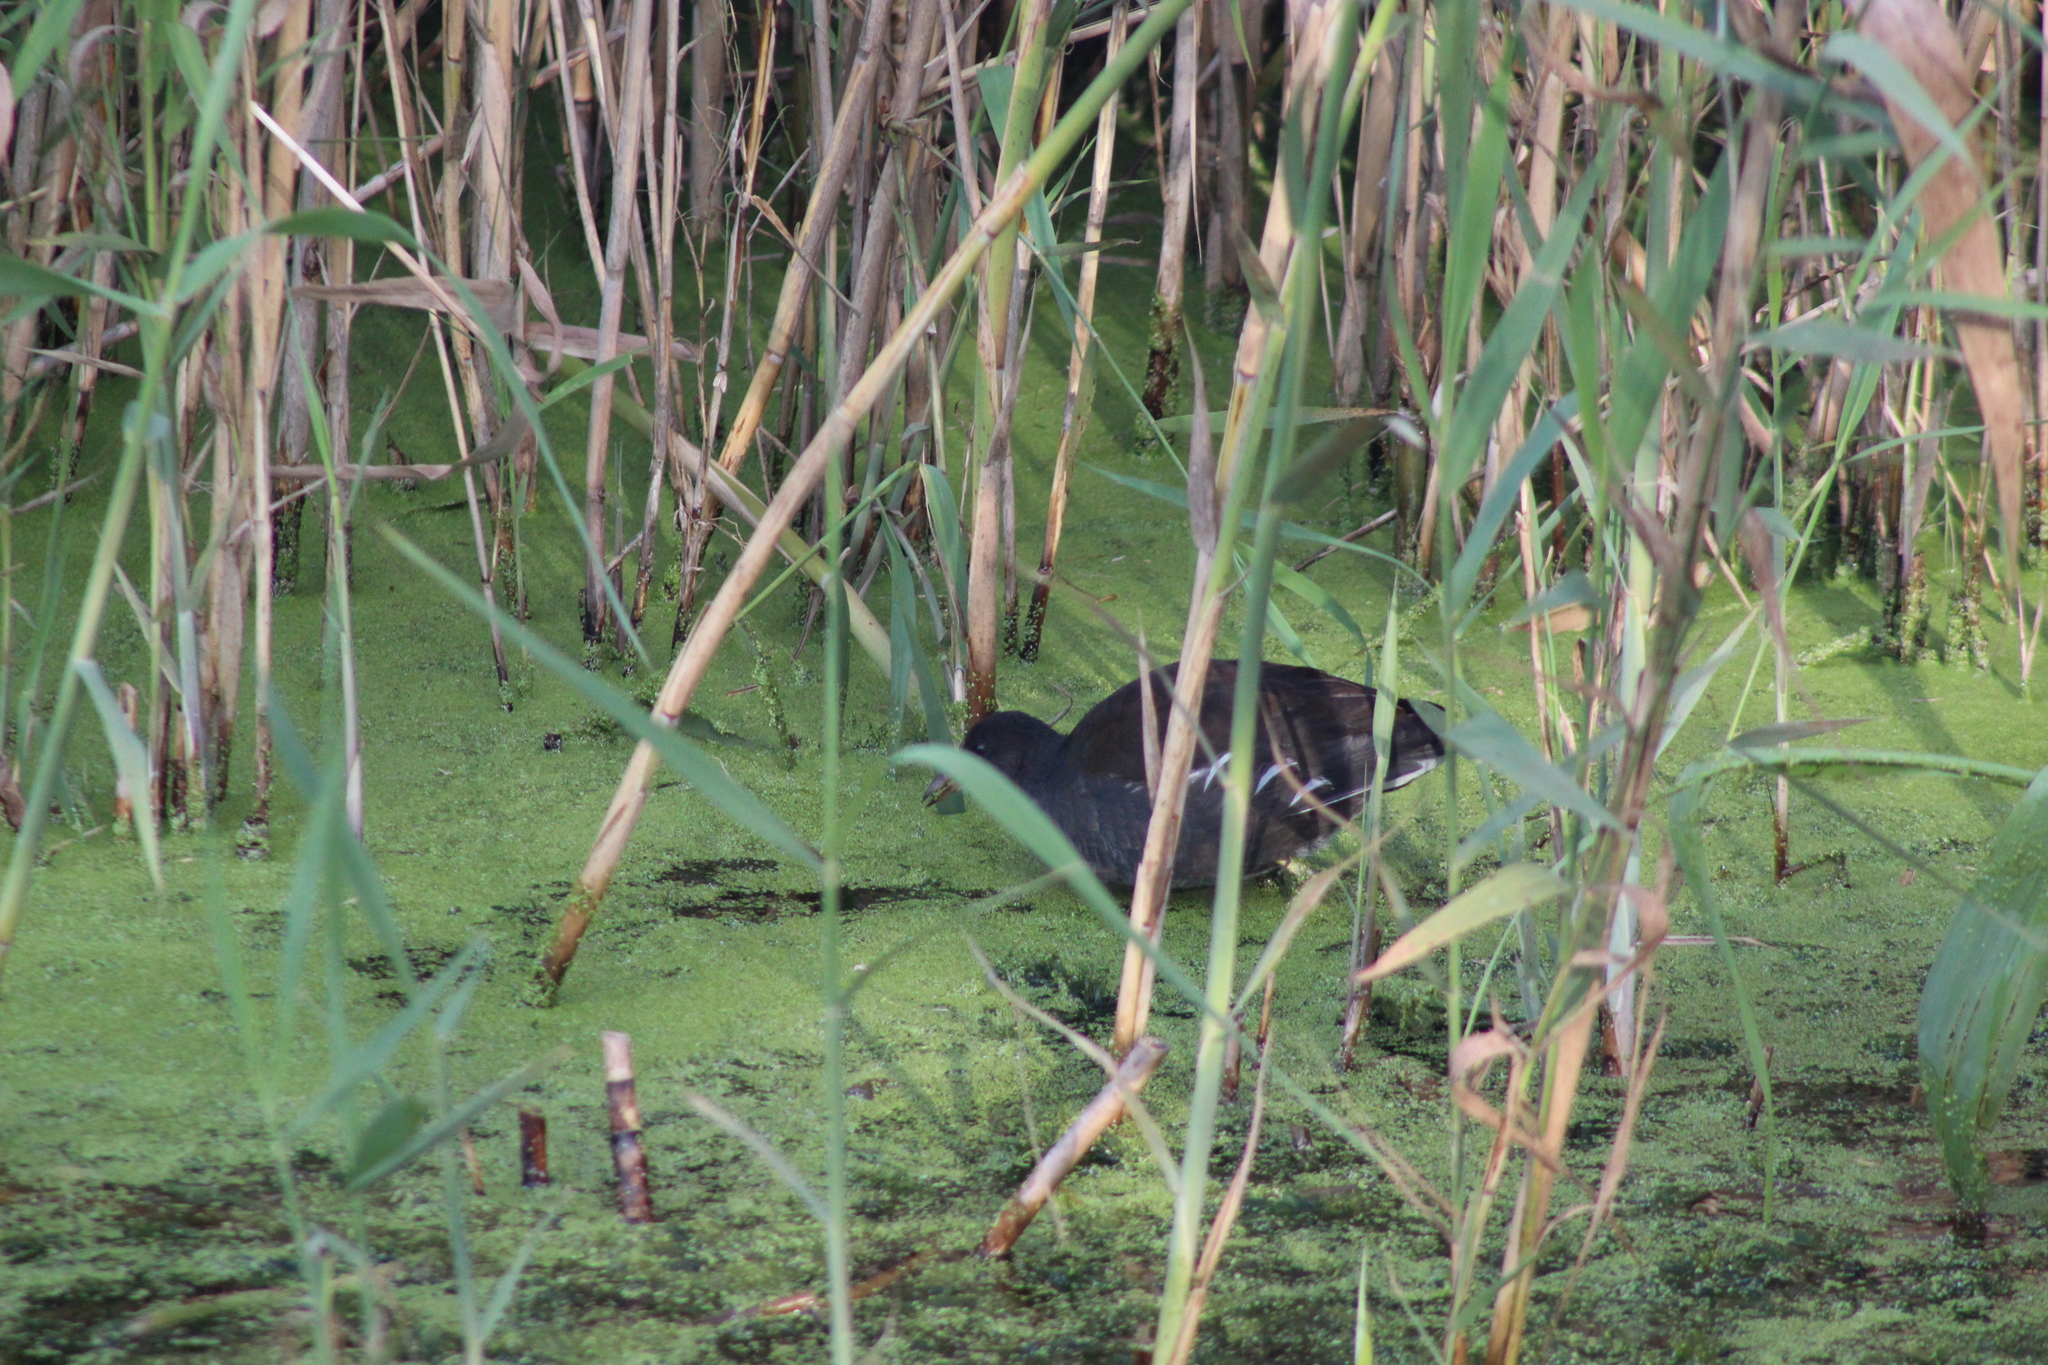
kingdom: Animalia
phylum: Chordata
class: Aves
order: Gruiformes
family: Rallidae
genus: Gallinula
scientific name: Gallinula chloropus
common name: Common moorhen
